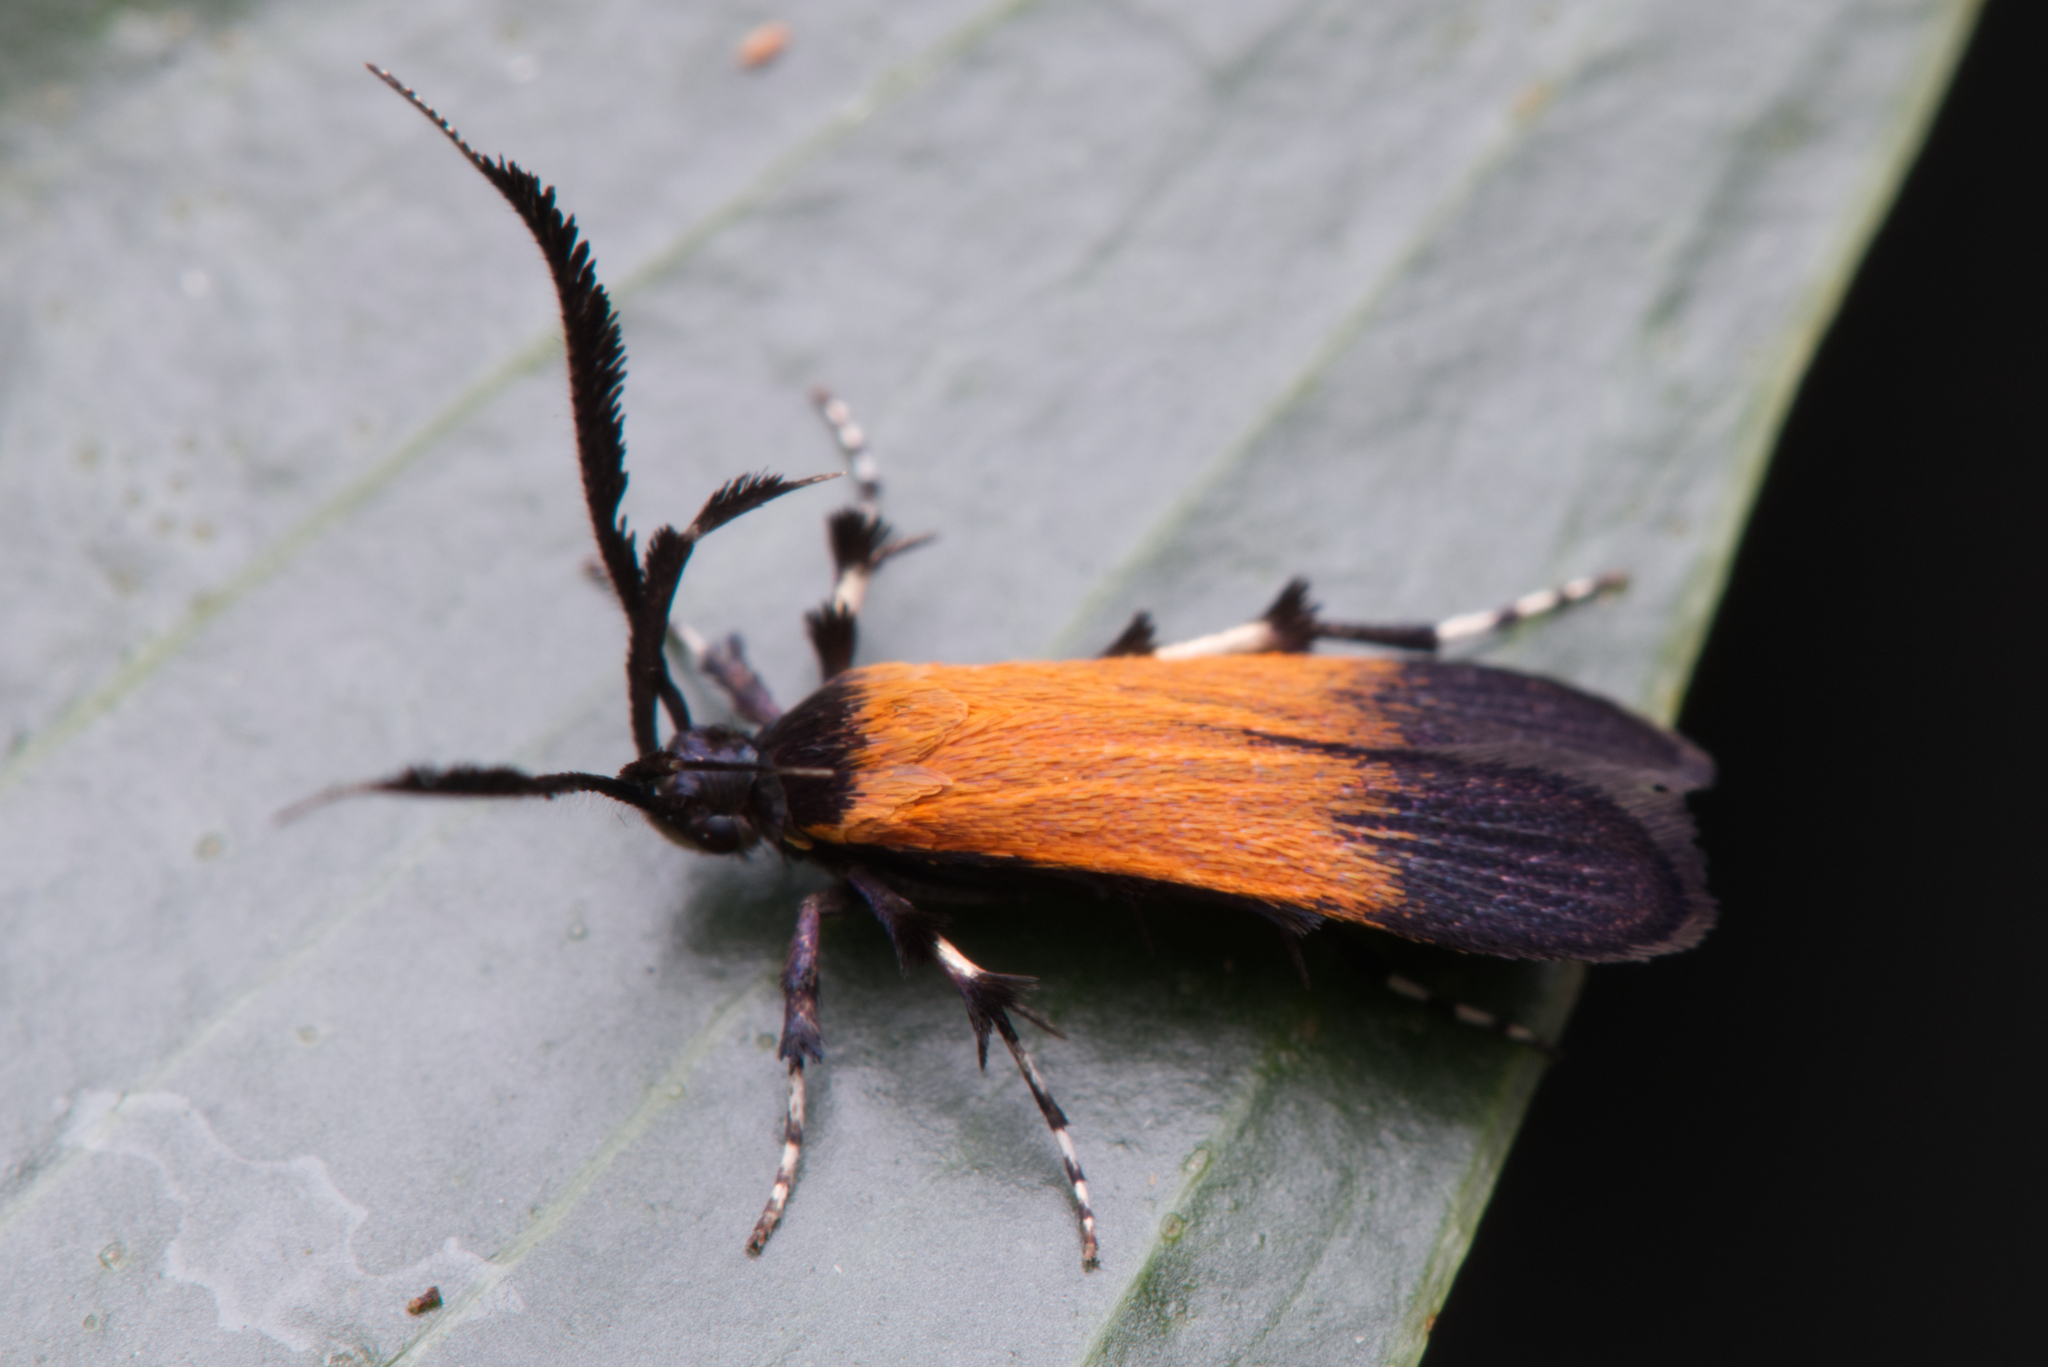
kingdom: Animalia
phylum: Arthropoda
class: Insecta
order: Lepidoptera
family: Stathmopodidae
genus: Snellenia
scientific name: Snellenia miltocrossa
